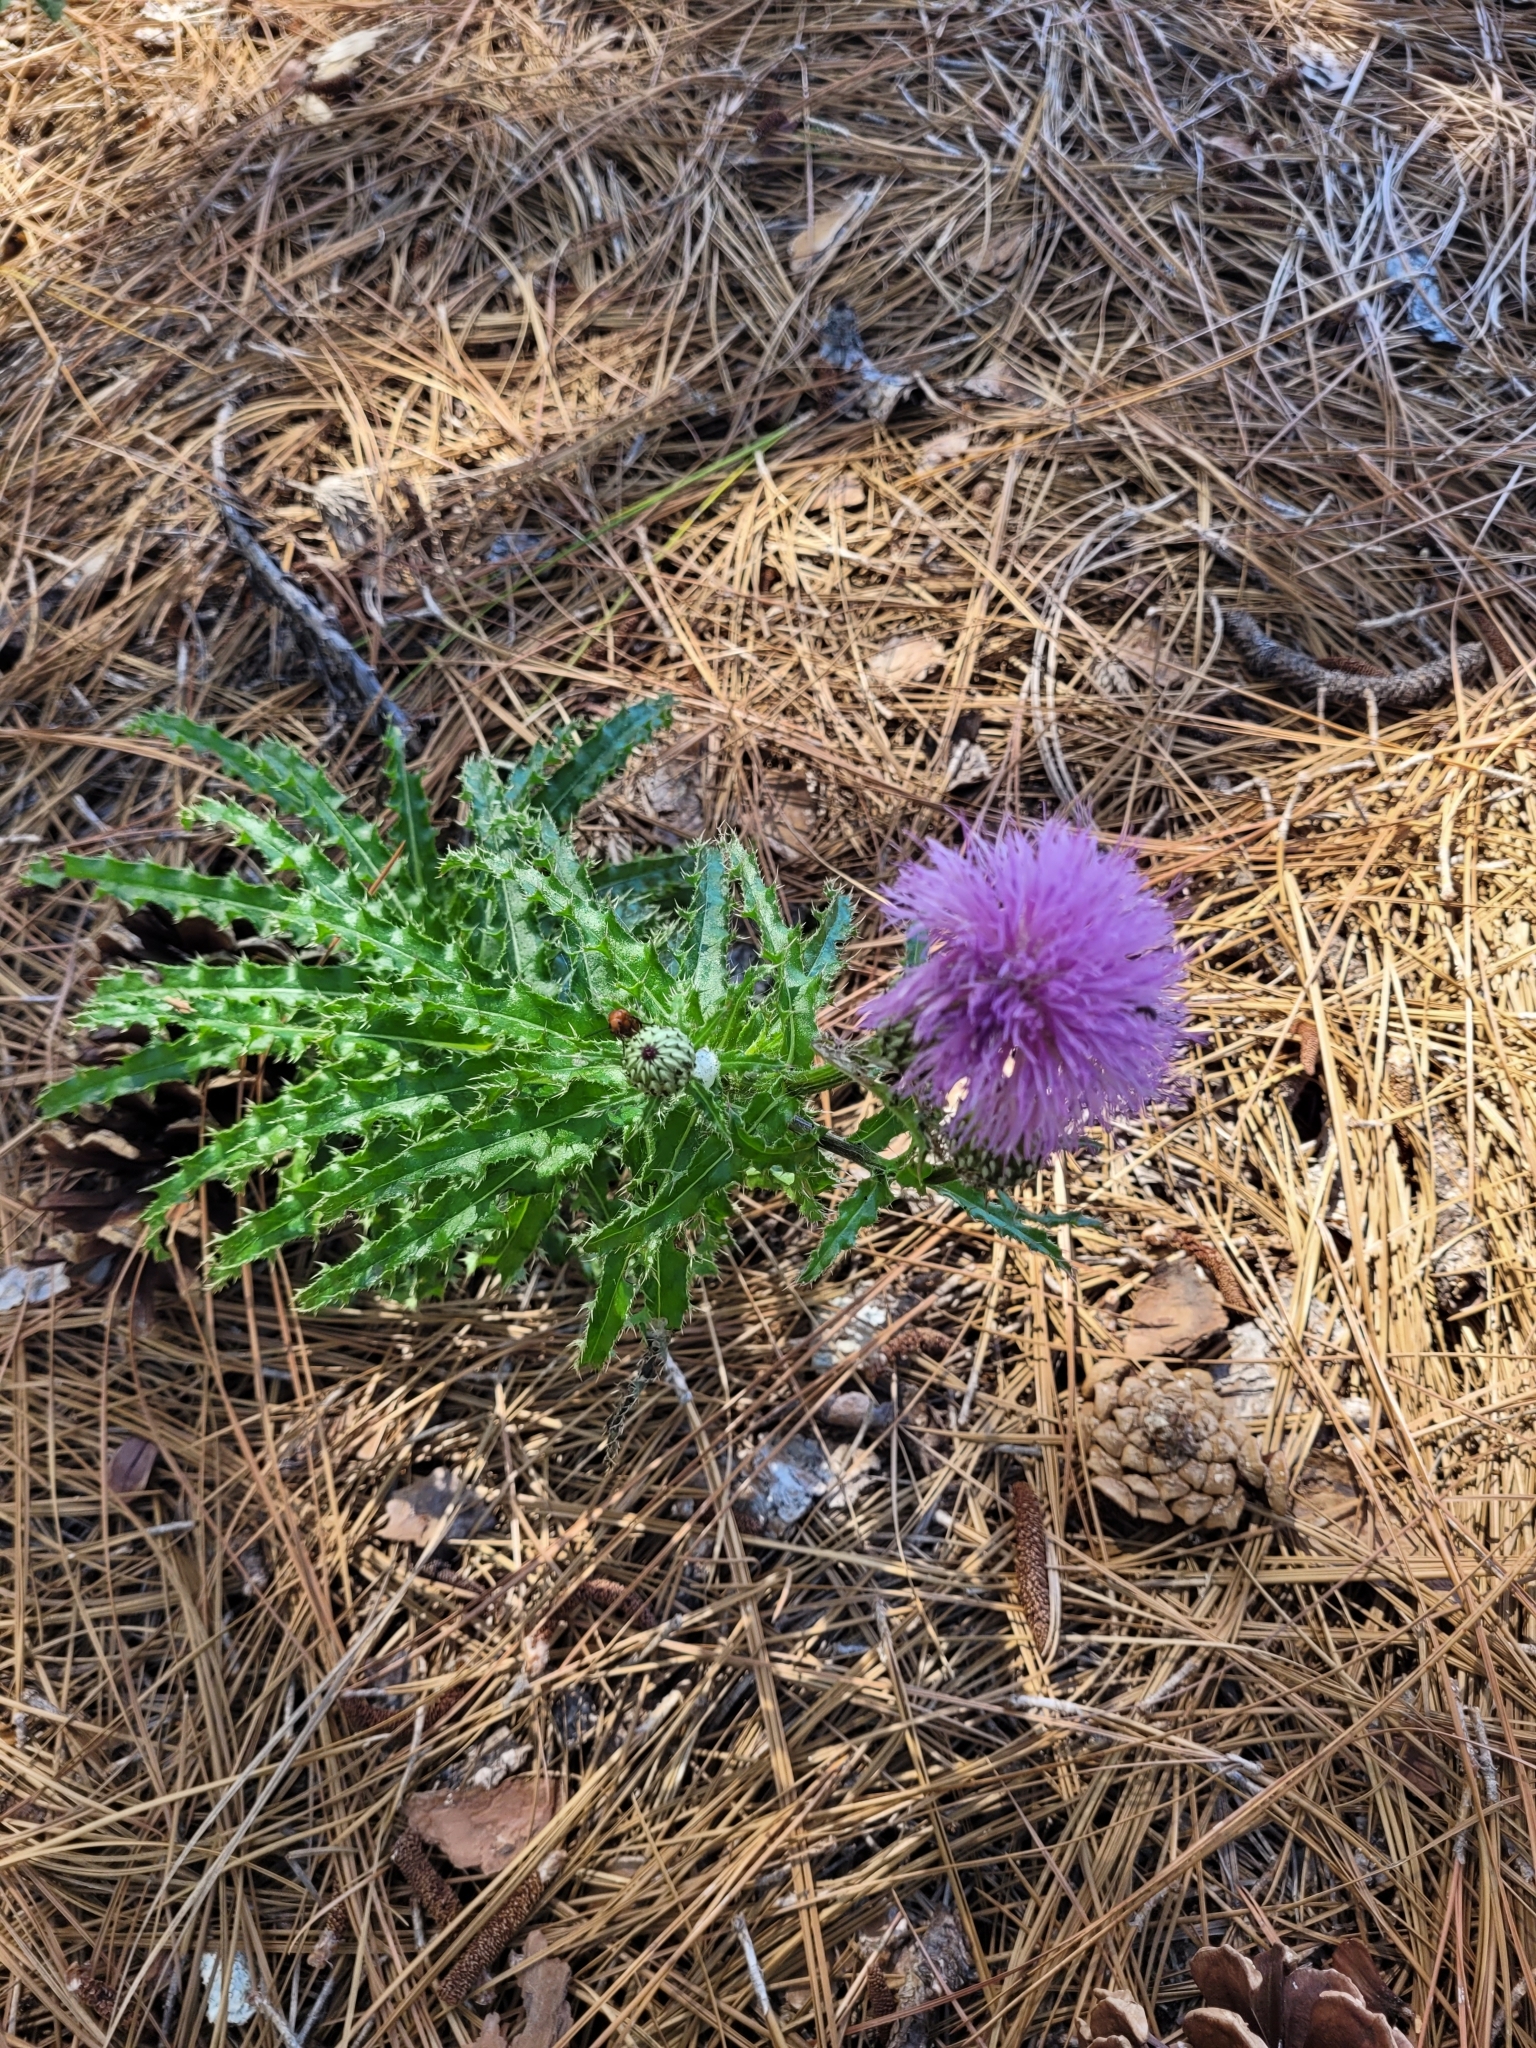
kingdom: Plantae
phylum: Tracheophyta
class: Magnoliopsida
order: Asterales
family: Asteraceae
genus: Cirsium
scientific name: Cirsium repandum
